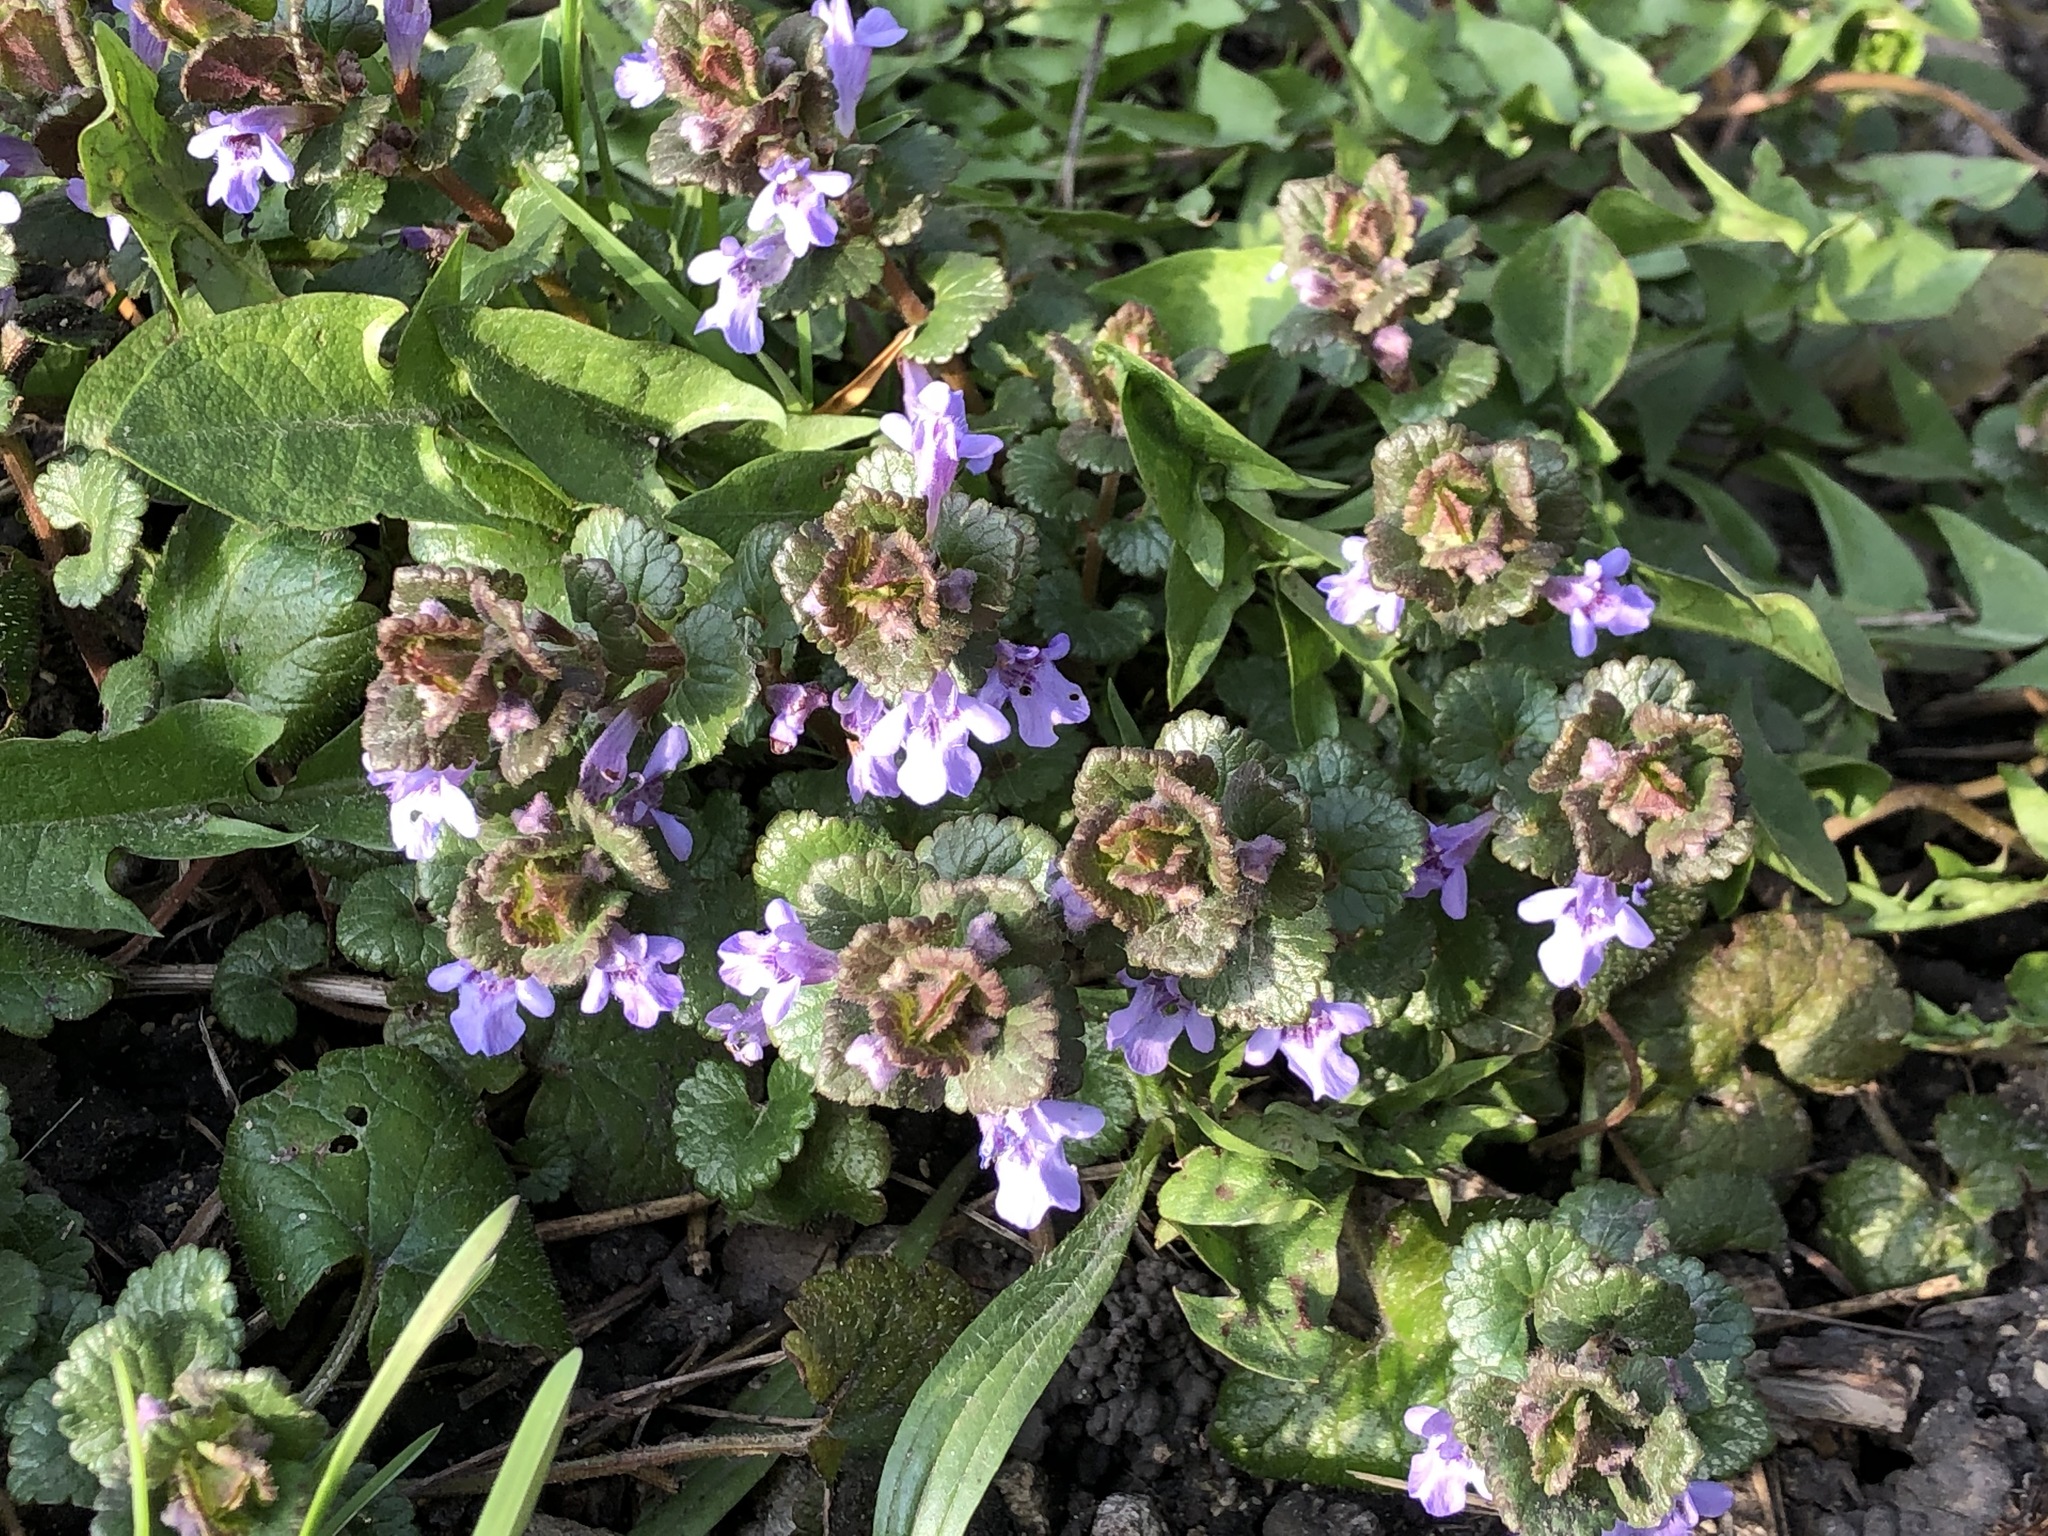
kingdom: Plantae
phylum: Tracheophyta
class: Magnoliopsida
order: Lamiales
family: Lamiaceae
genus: Glechoma
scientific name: Glechoma hederacea
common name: Ground ivy
